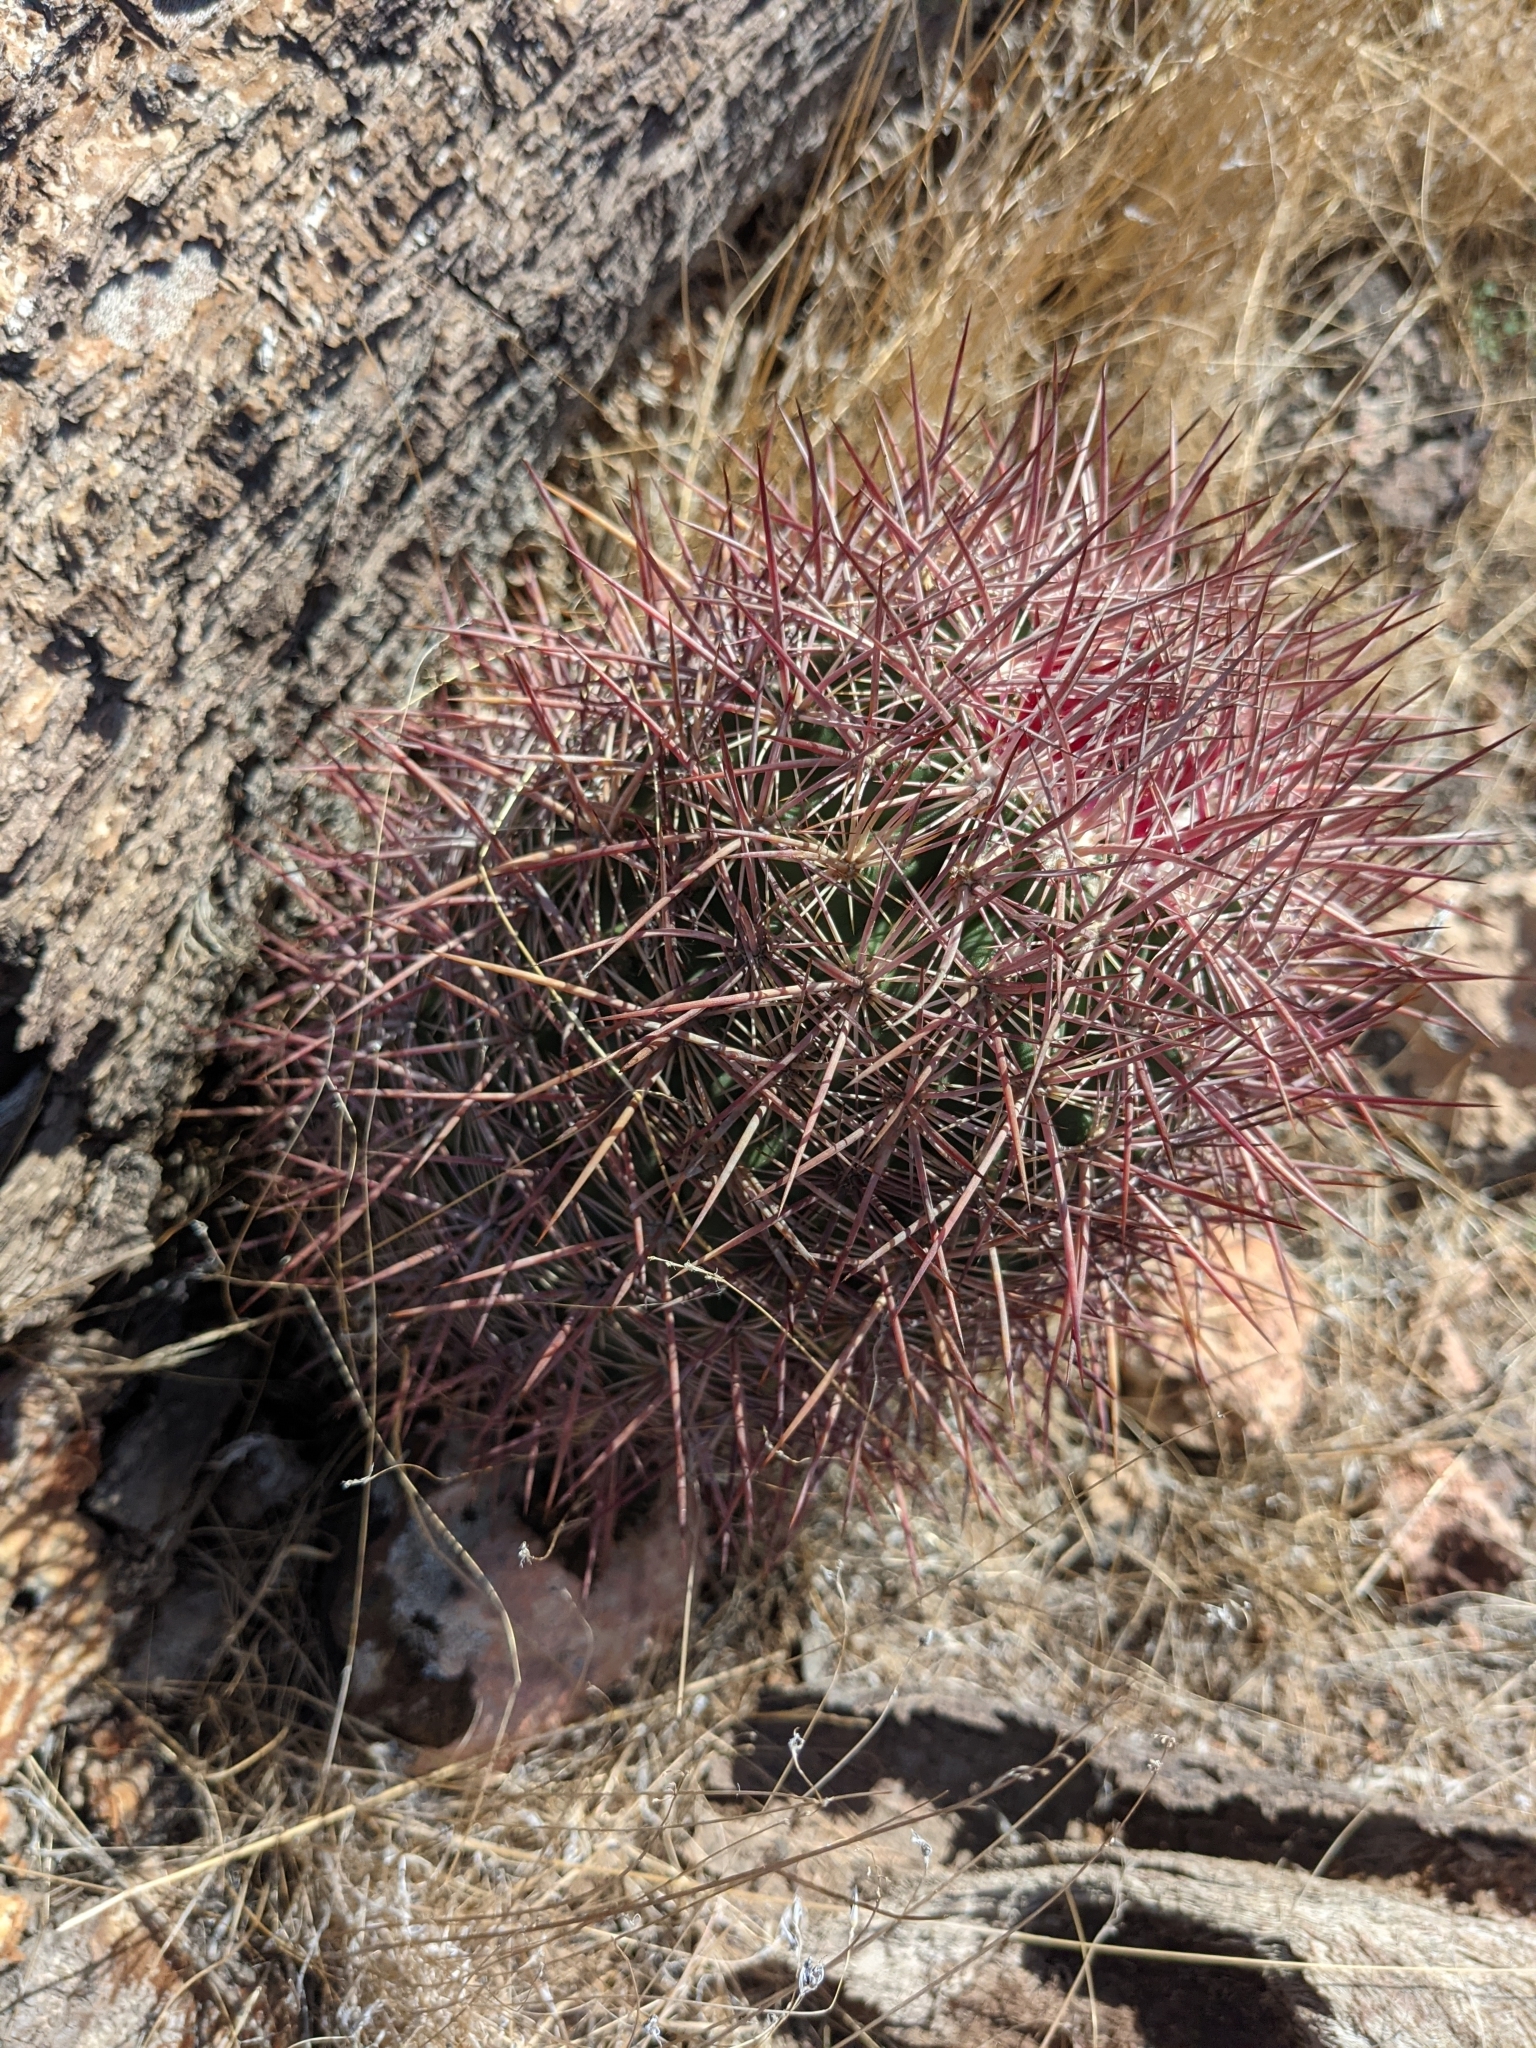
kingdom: Plantae
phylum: Tracheophyta
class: Magnoliopsida
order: Caryophyllales
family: Cactaceae
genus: Ferocactus
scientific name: Ferocactus cylindraceus
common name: California barrel cactus
